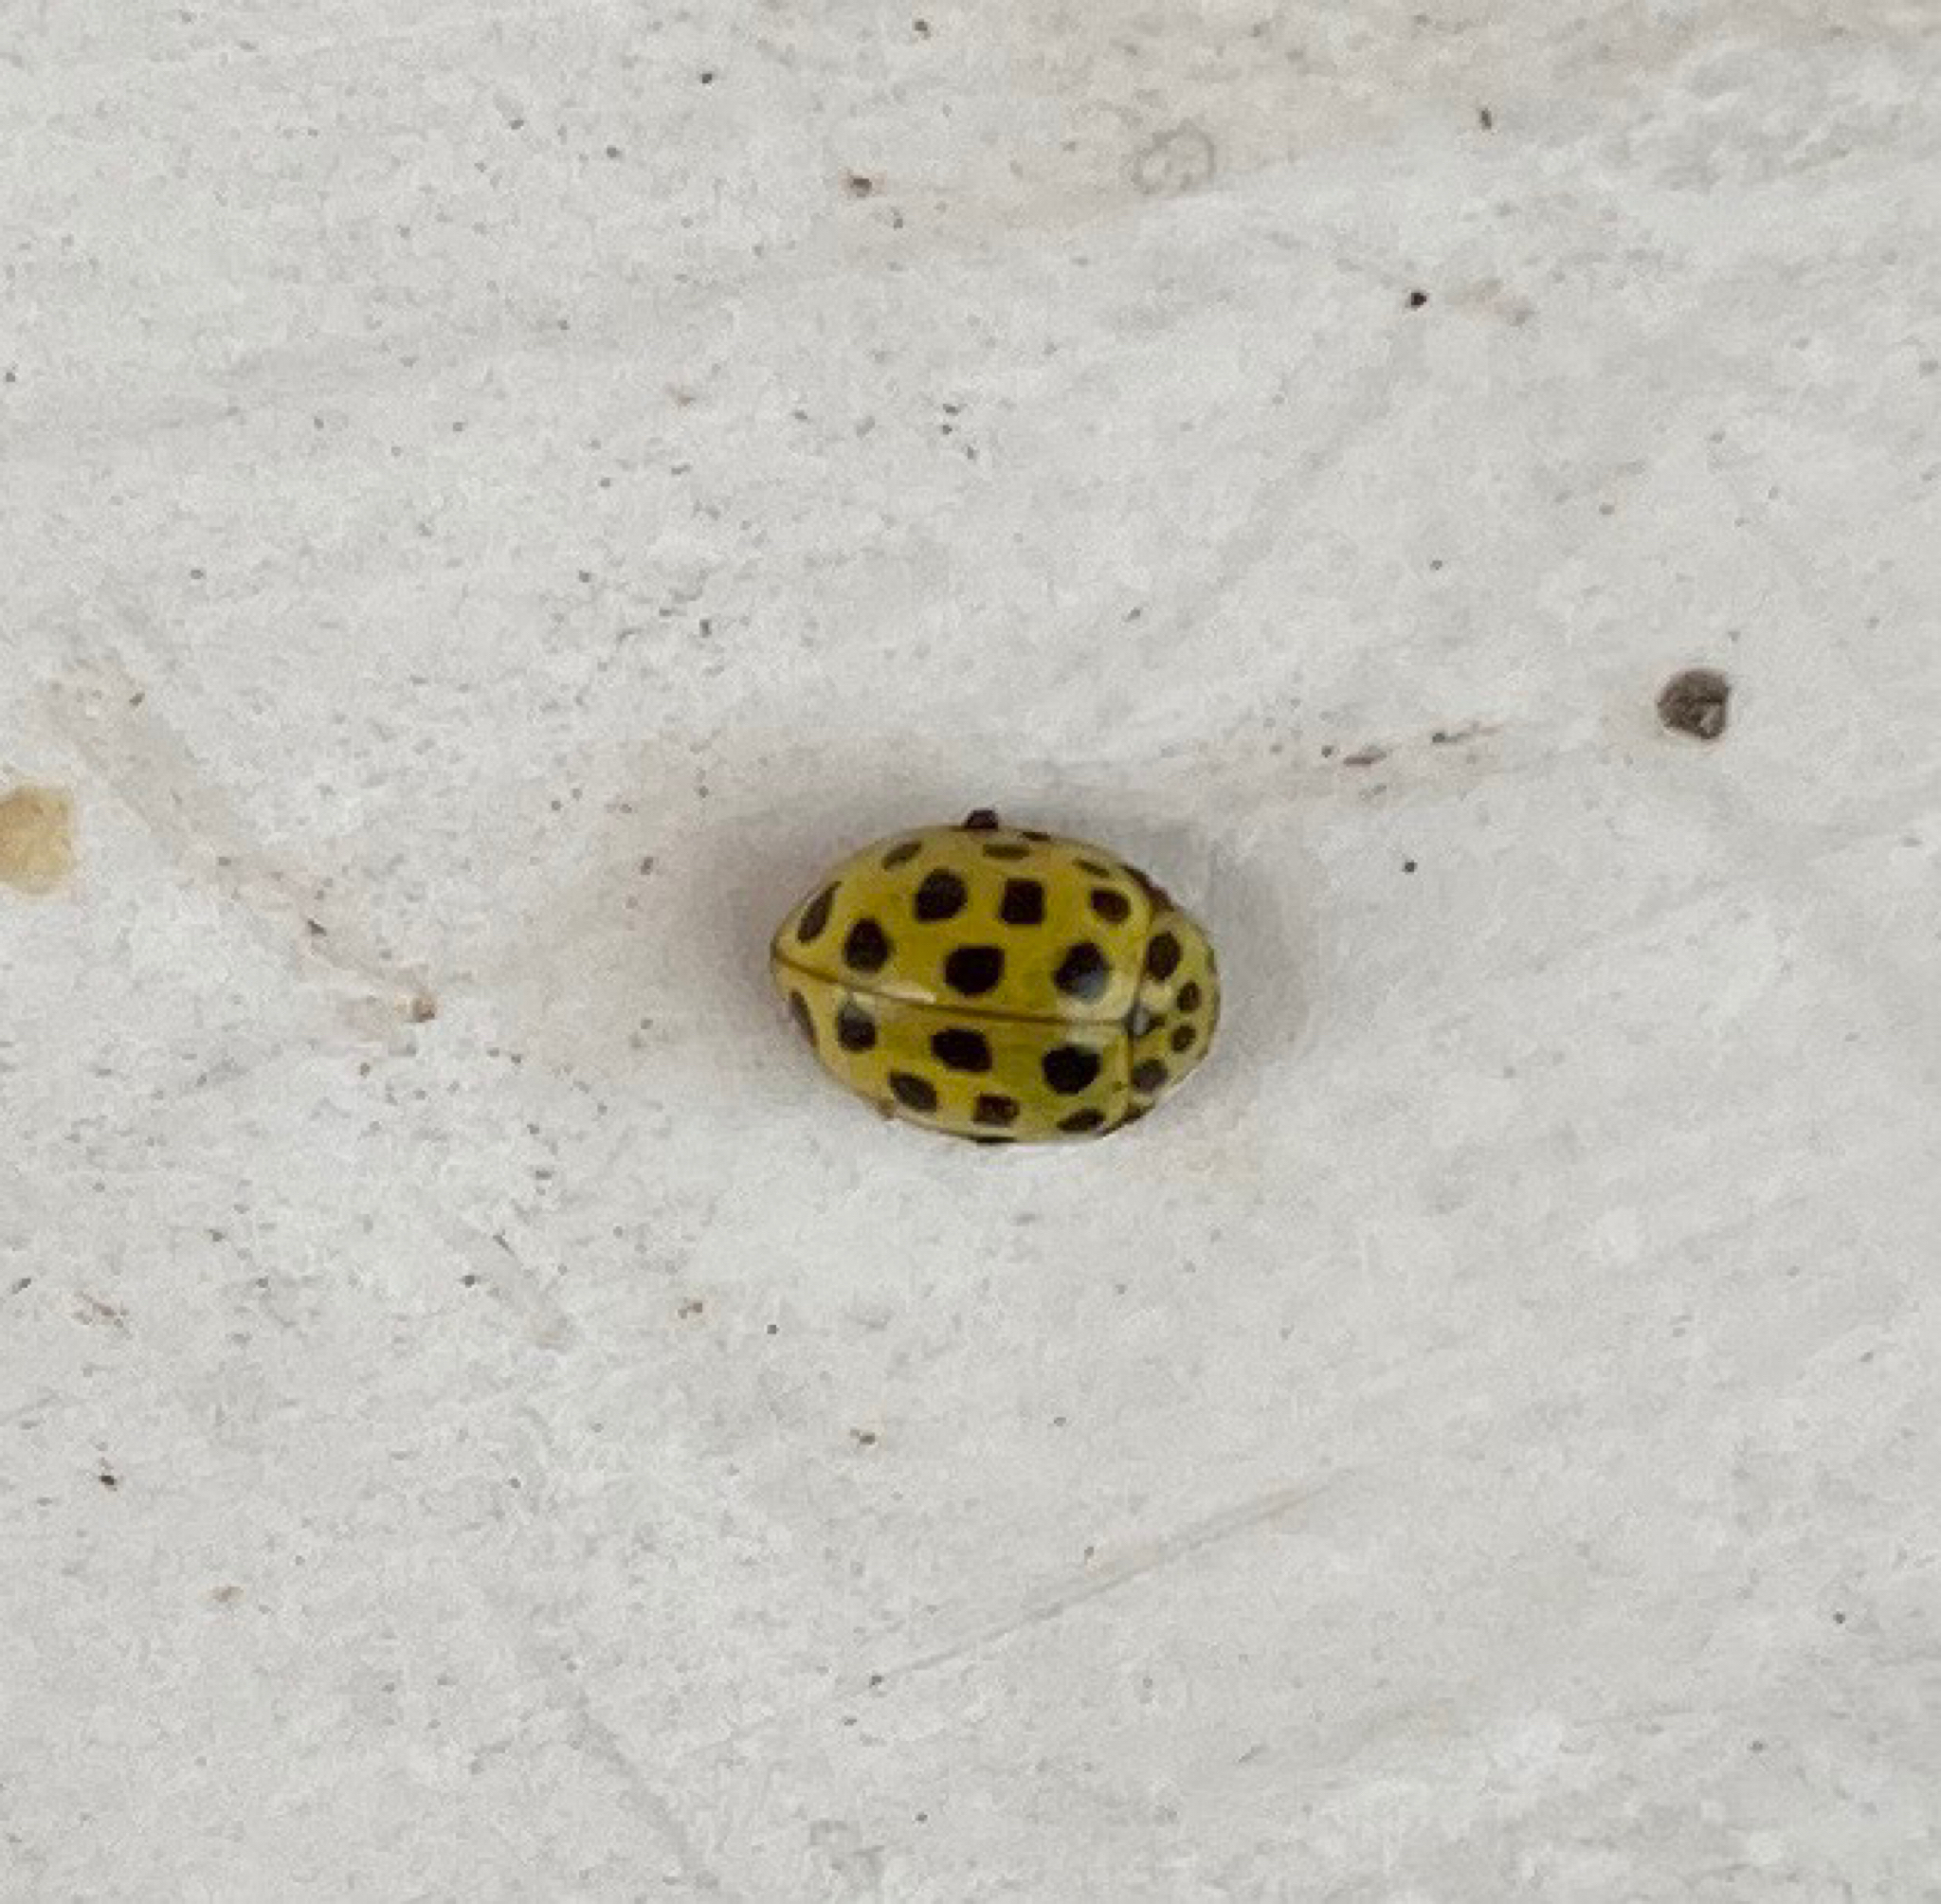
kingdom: Animalia
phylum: Arthropoda
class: Insecta
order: Coleoptera
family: Coccinellidae
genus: Psyllobora
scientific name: Psyllobora vigintiduopunctata
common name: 22-spot ladybird
